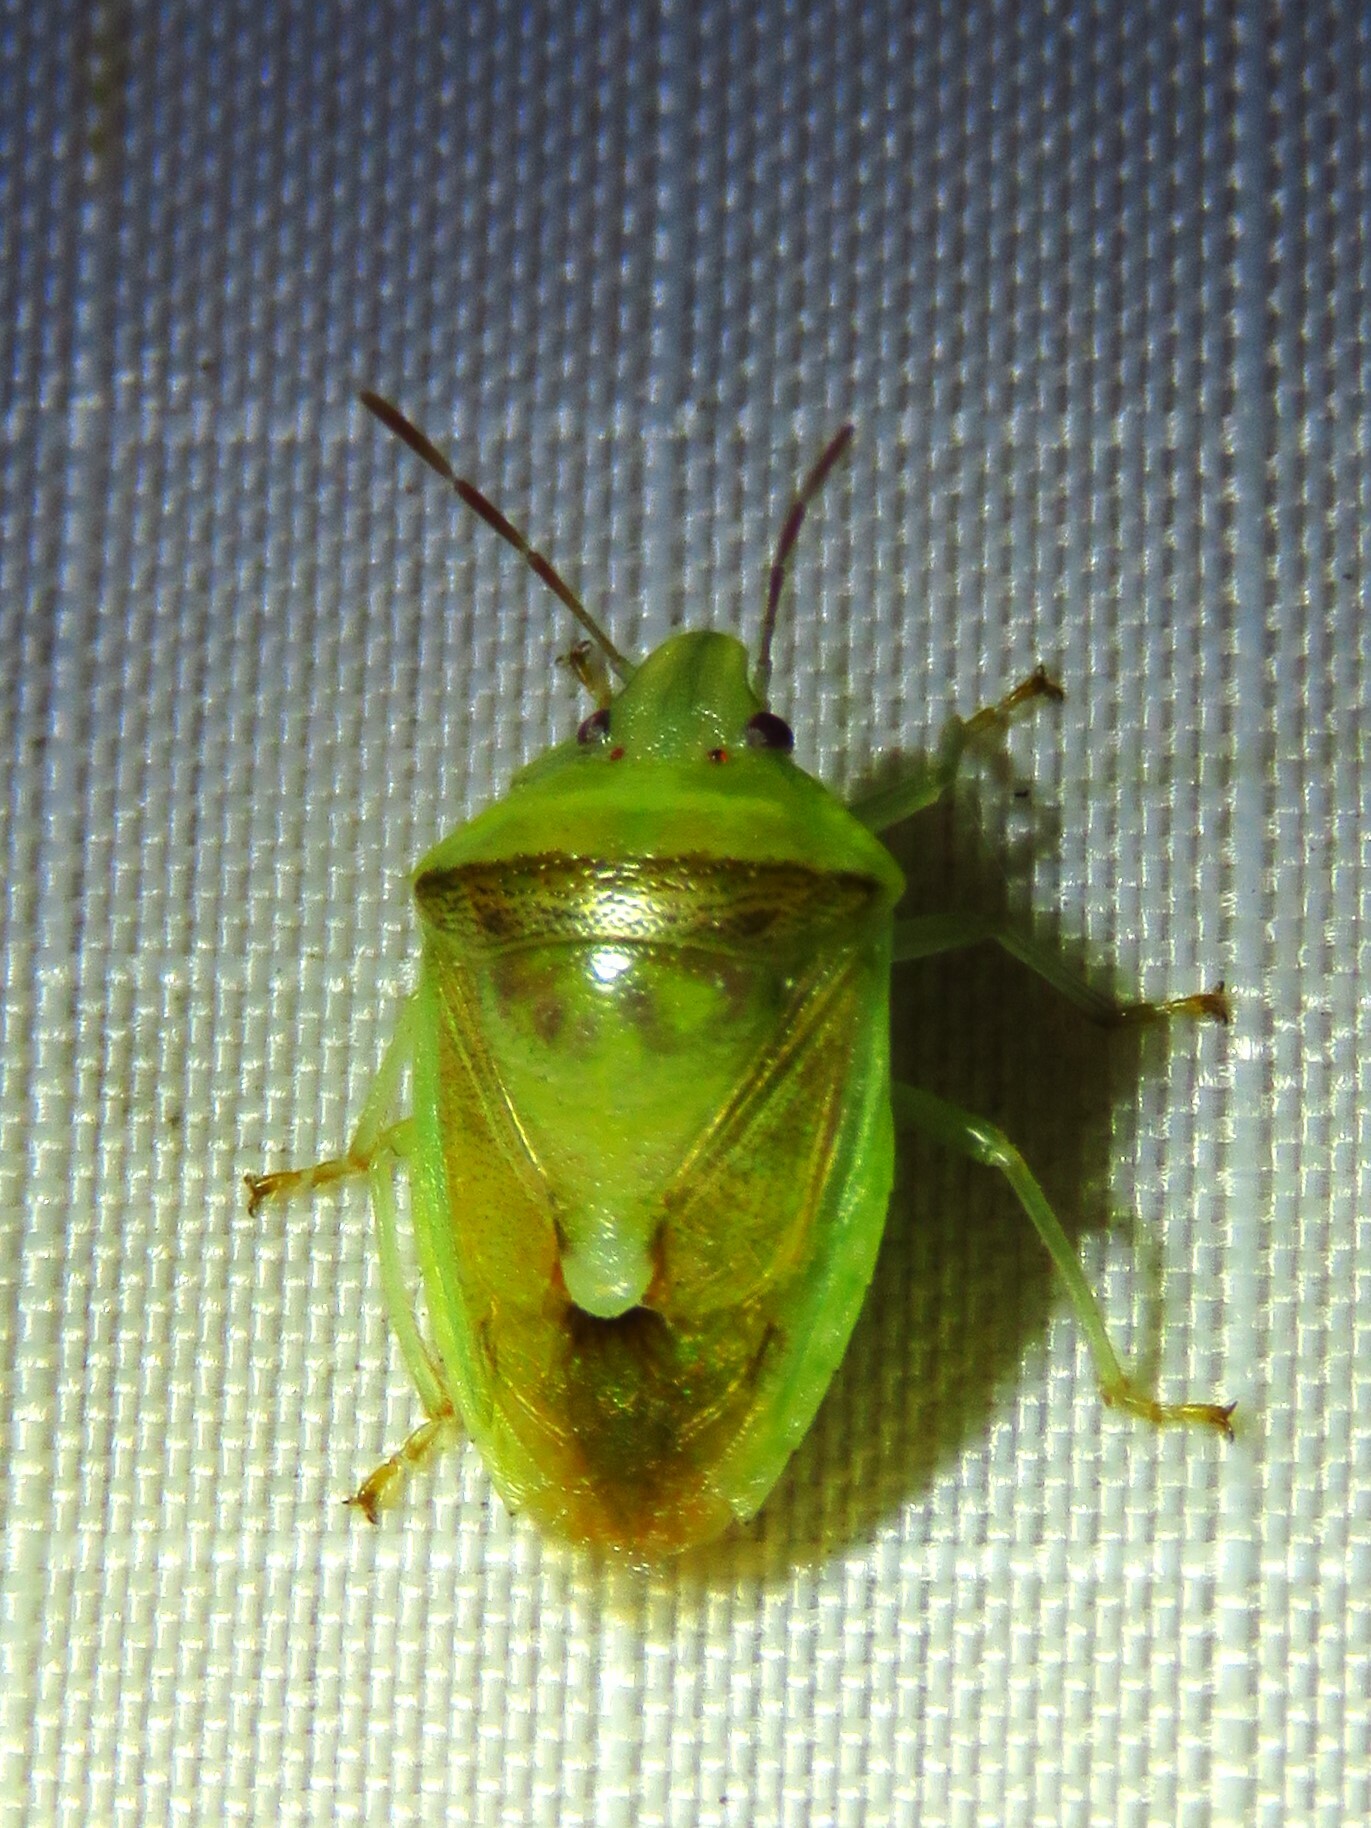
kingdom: Animalia
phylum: Arthropoda
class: Insecta
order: Hemiptera
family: Pentatomidae
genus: Banasa
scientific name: Banasa dimidiata
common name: Green burgundy stink bug
